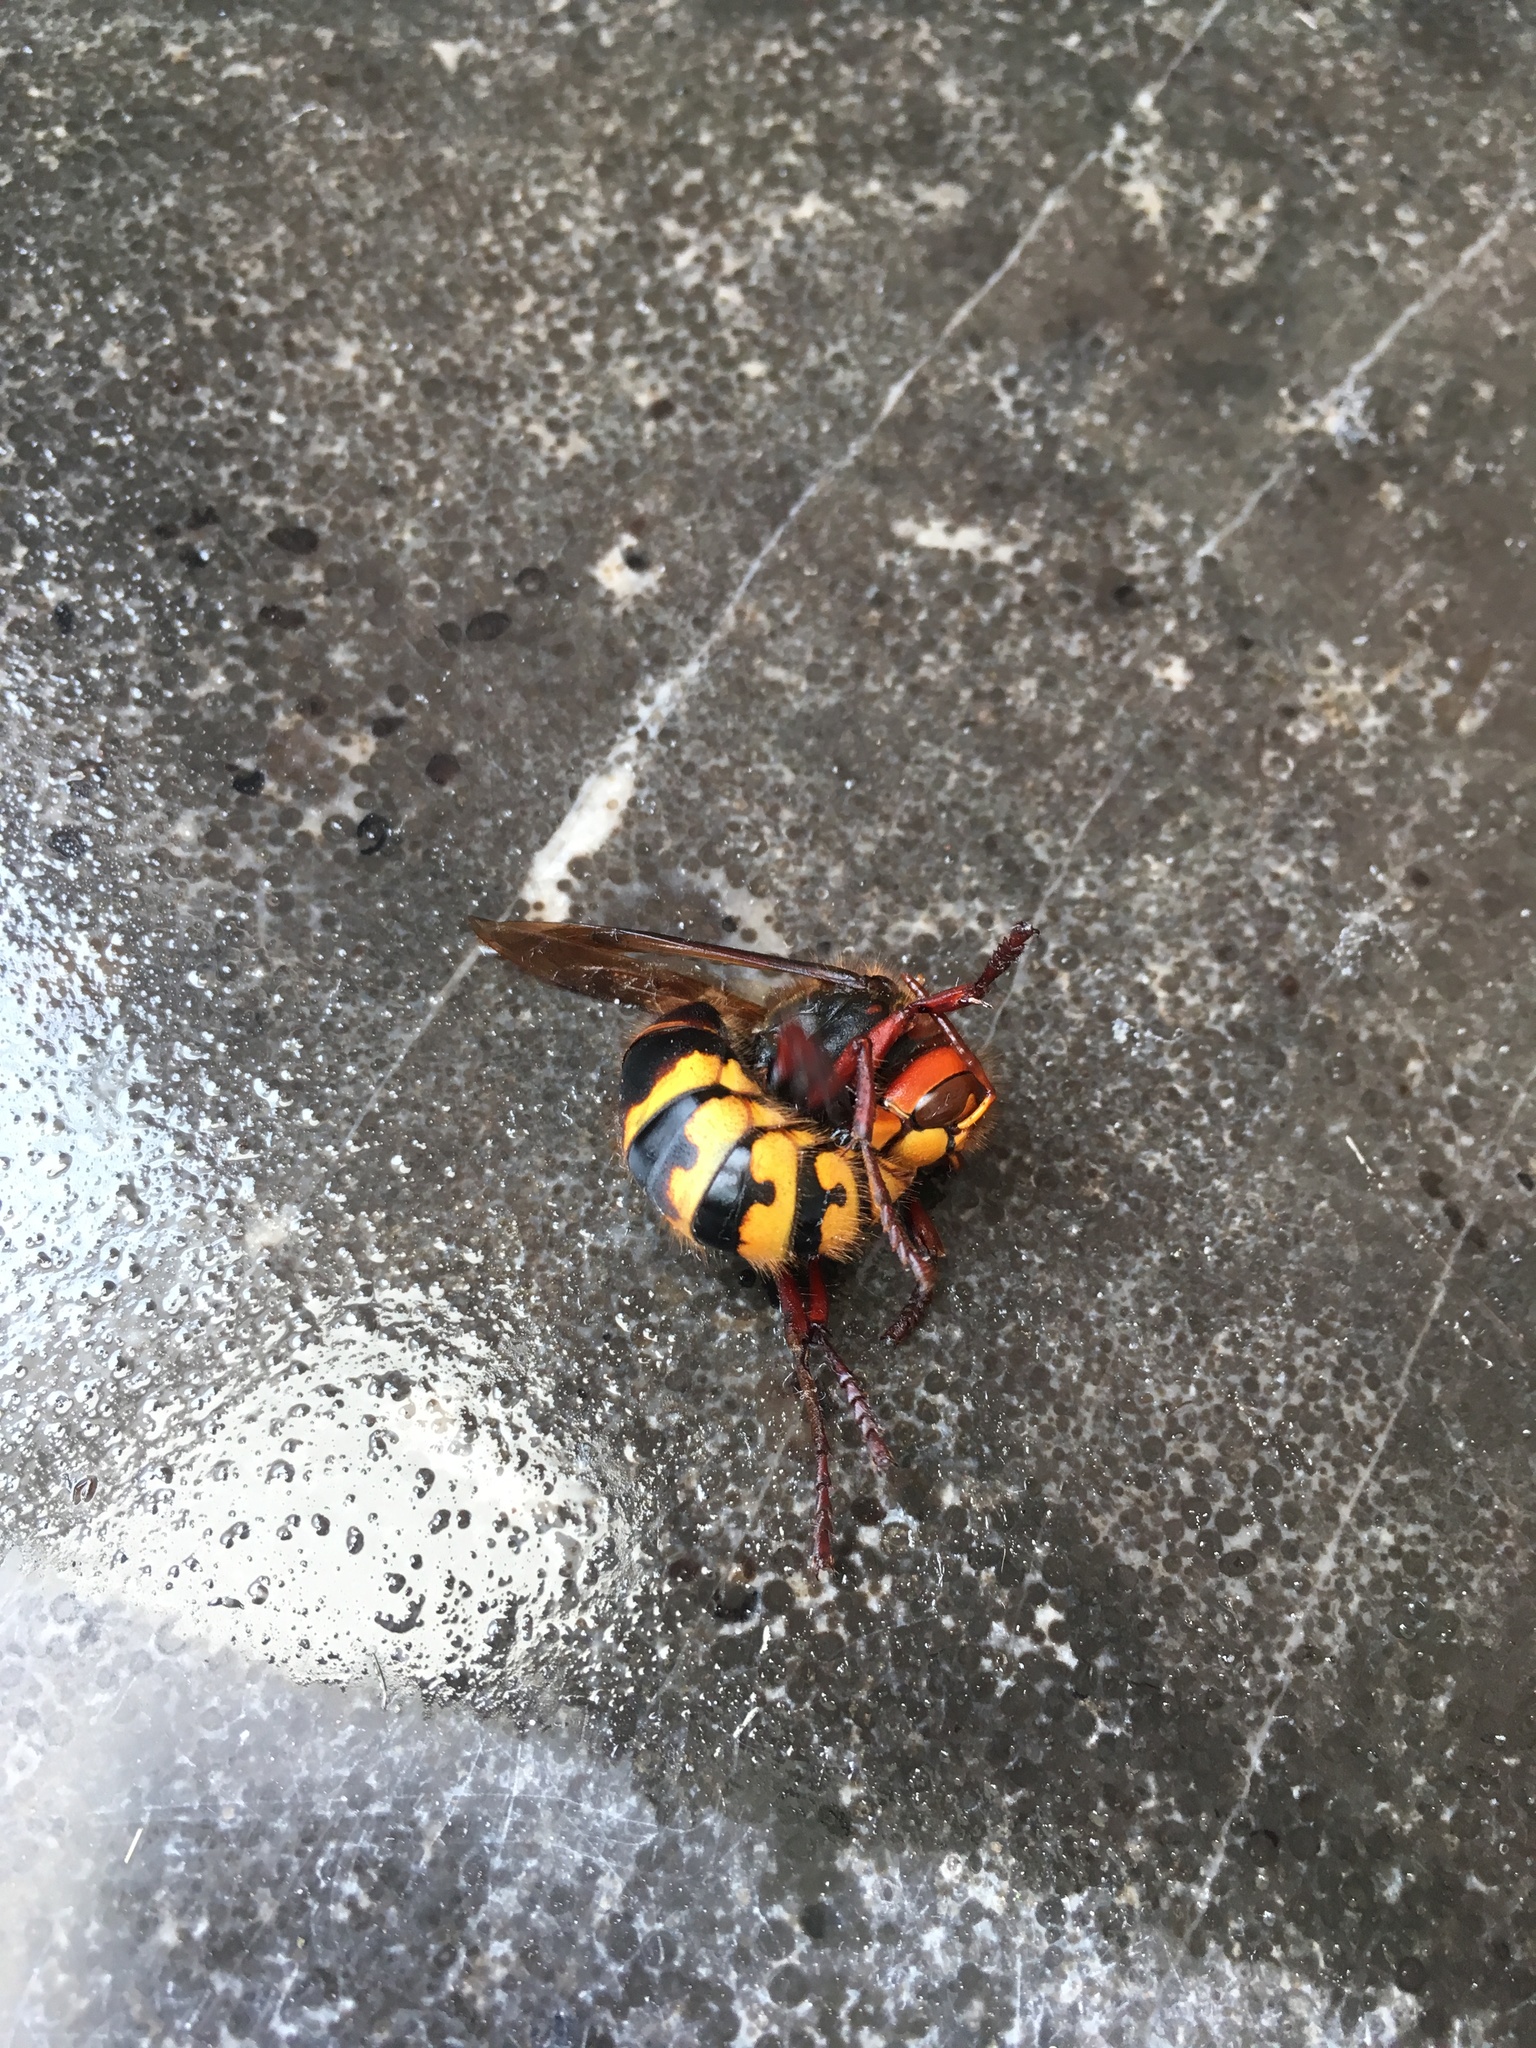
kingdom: Animalia
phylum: Arthropoda
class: Insecta
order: Hymenoptera
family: Vespidae
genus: Vespa
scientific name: Vespa crabro
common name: Hornet
